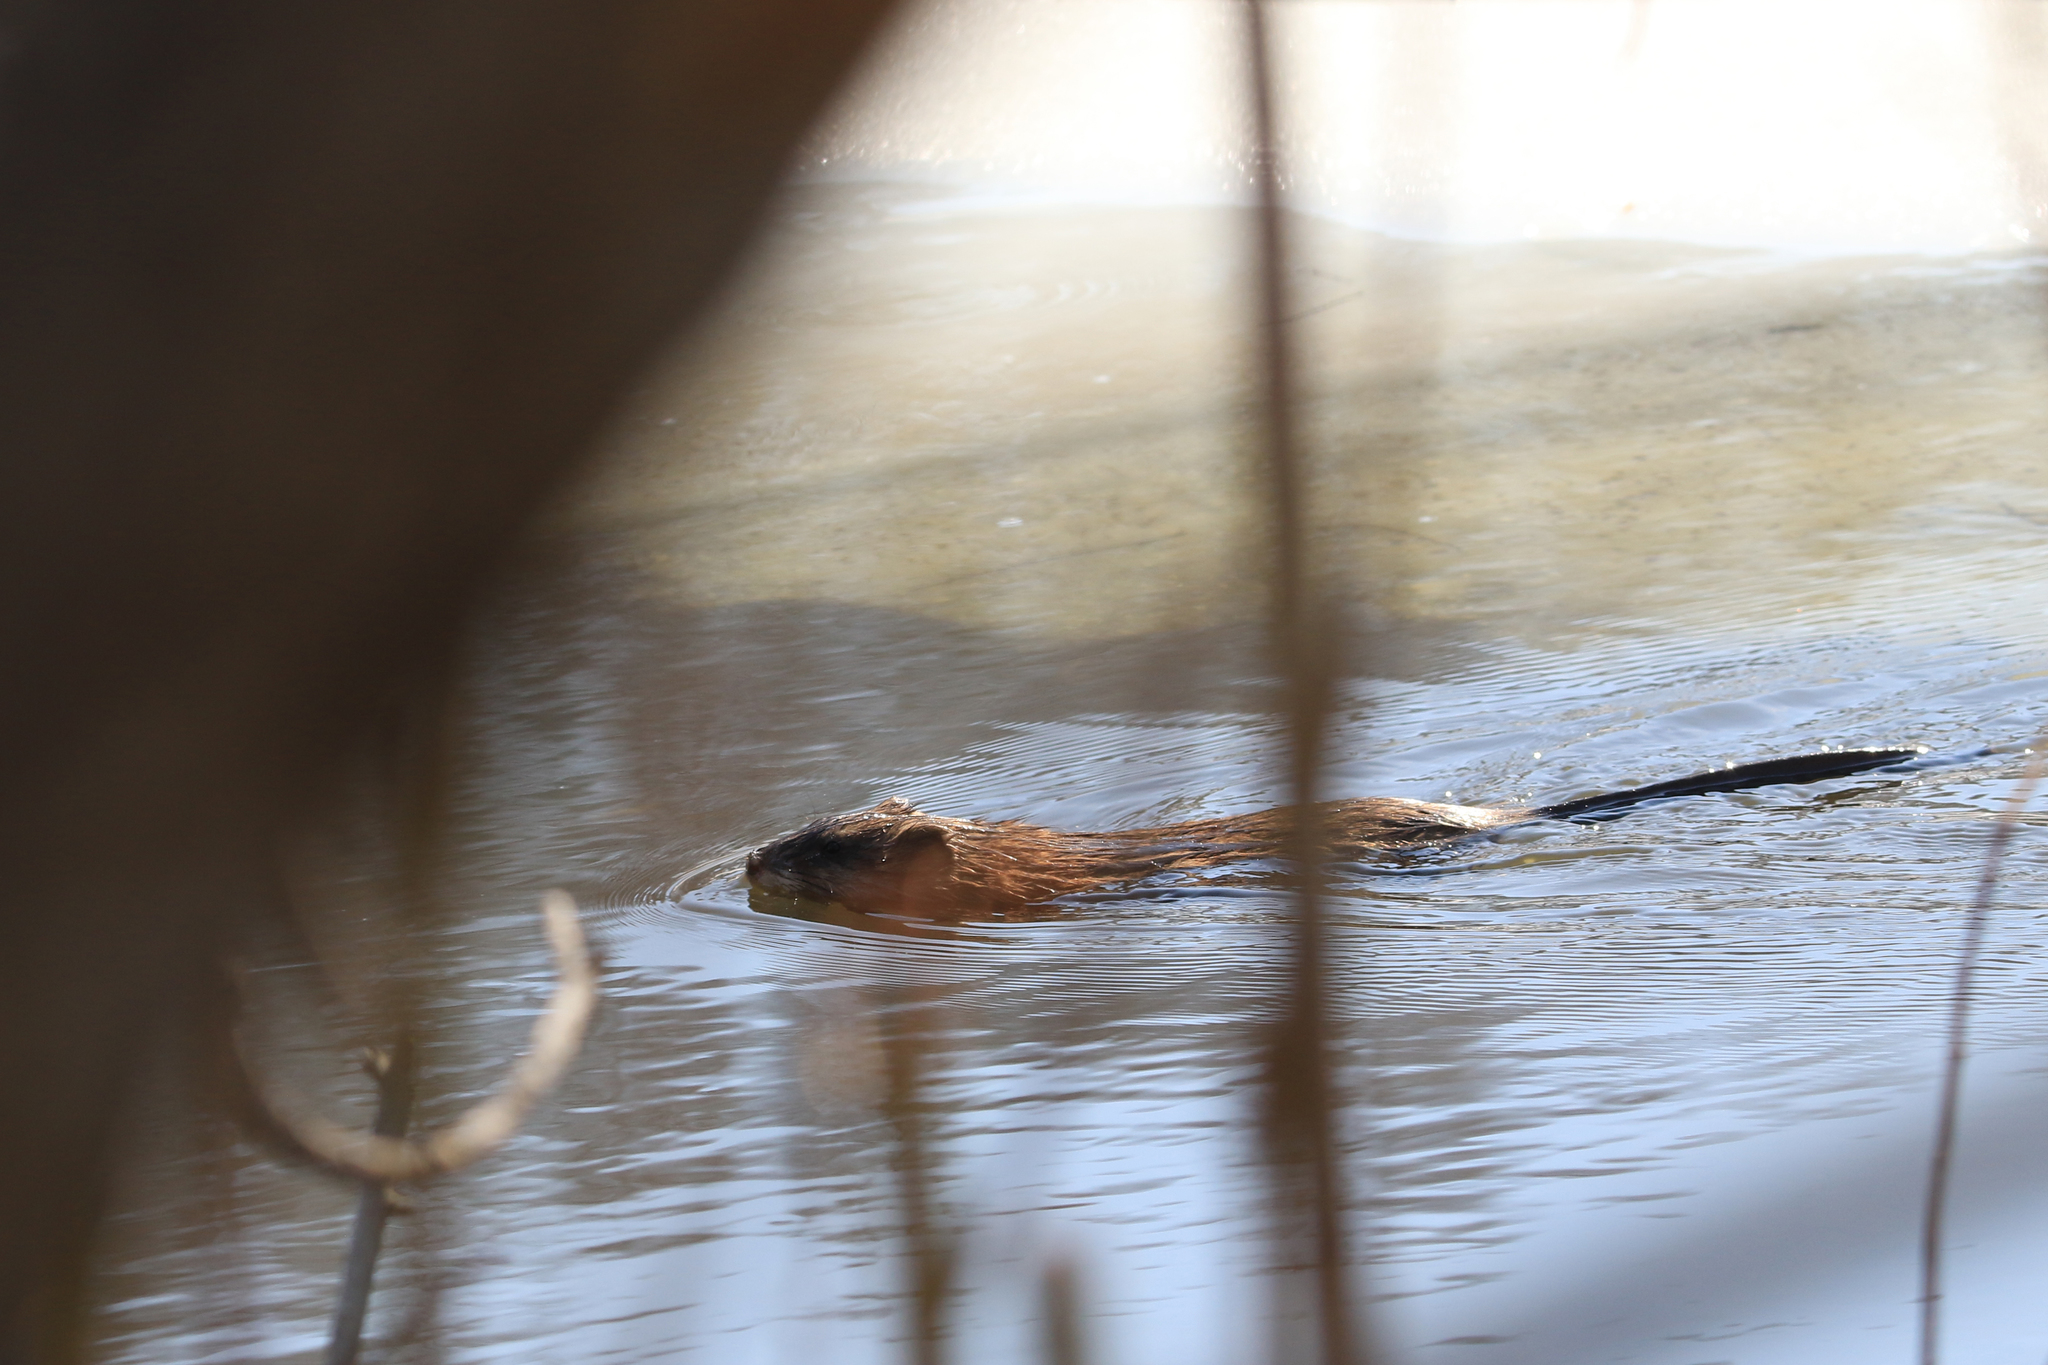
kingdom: Animalia
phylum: Chordata
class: Mammalia
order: Rodentia
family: Cricetidae
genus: Ondatra
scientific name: Ondatra zibethicus
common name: Muskrat
